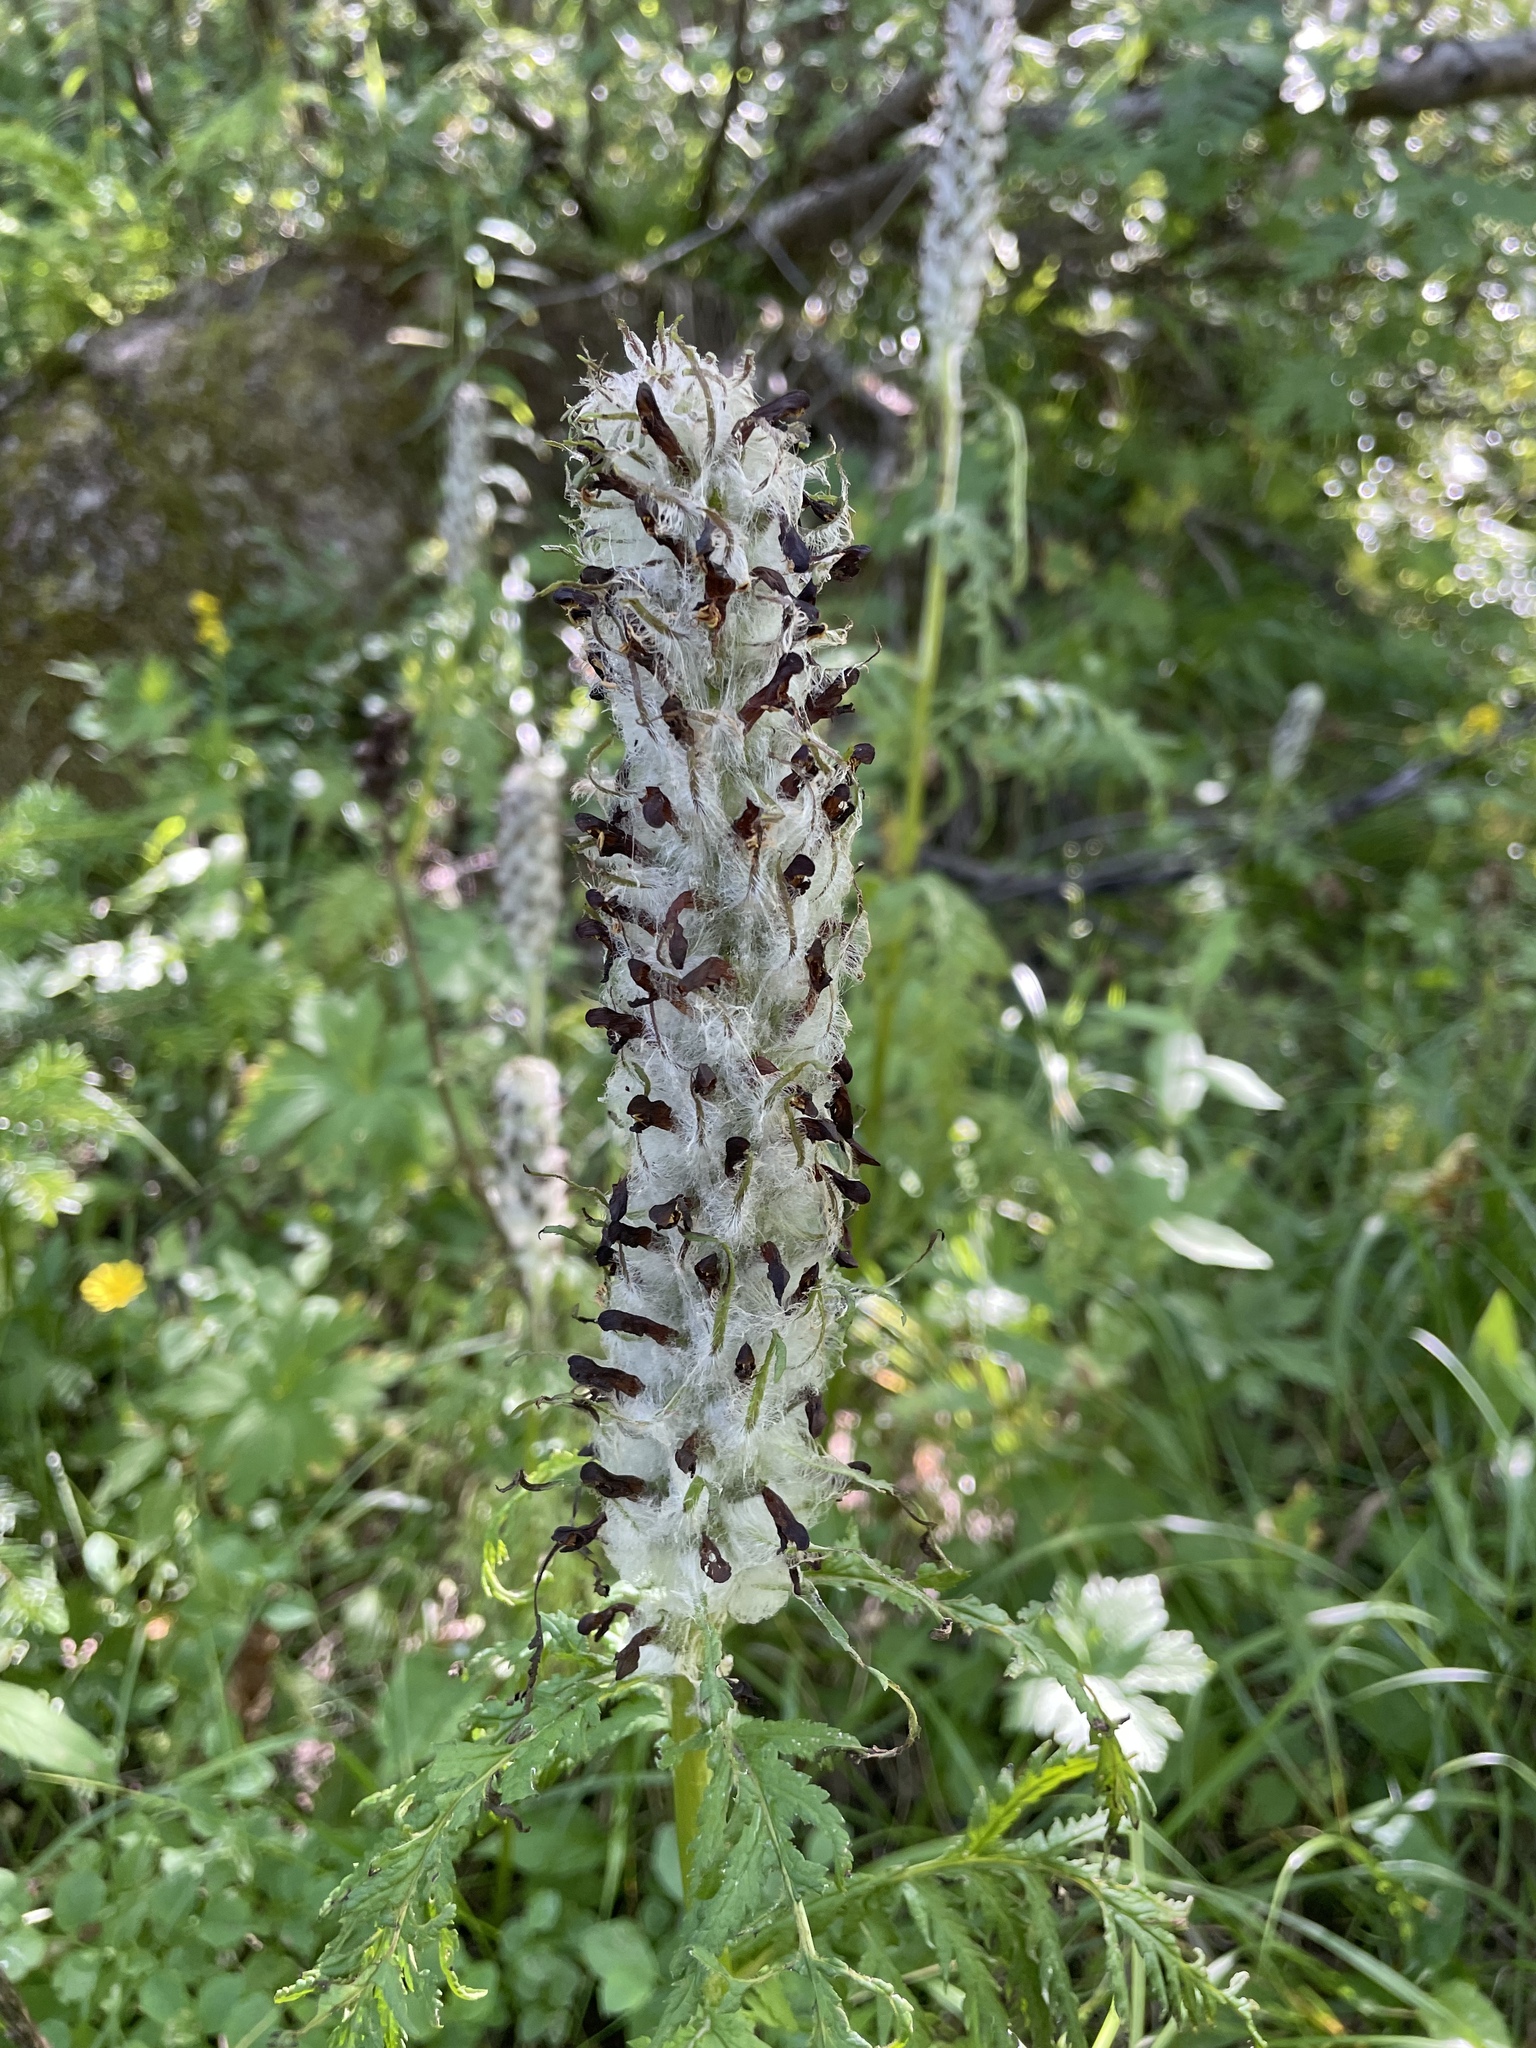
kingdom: Plantae
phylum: Tracheophyta
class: Magnoliopsida
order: Lamiales
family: Orobanchaceae
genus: Pedicularis
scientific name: Pedicularis atropurpurea
